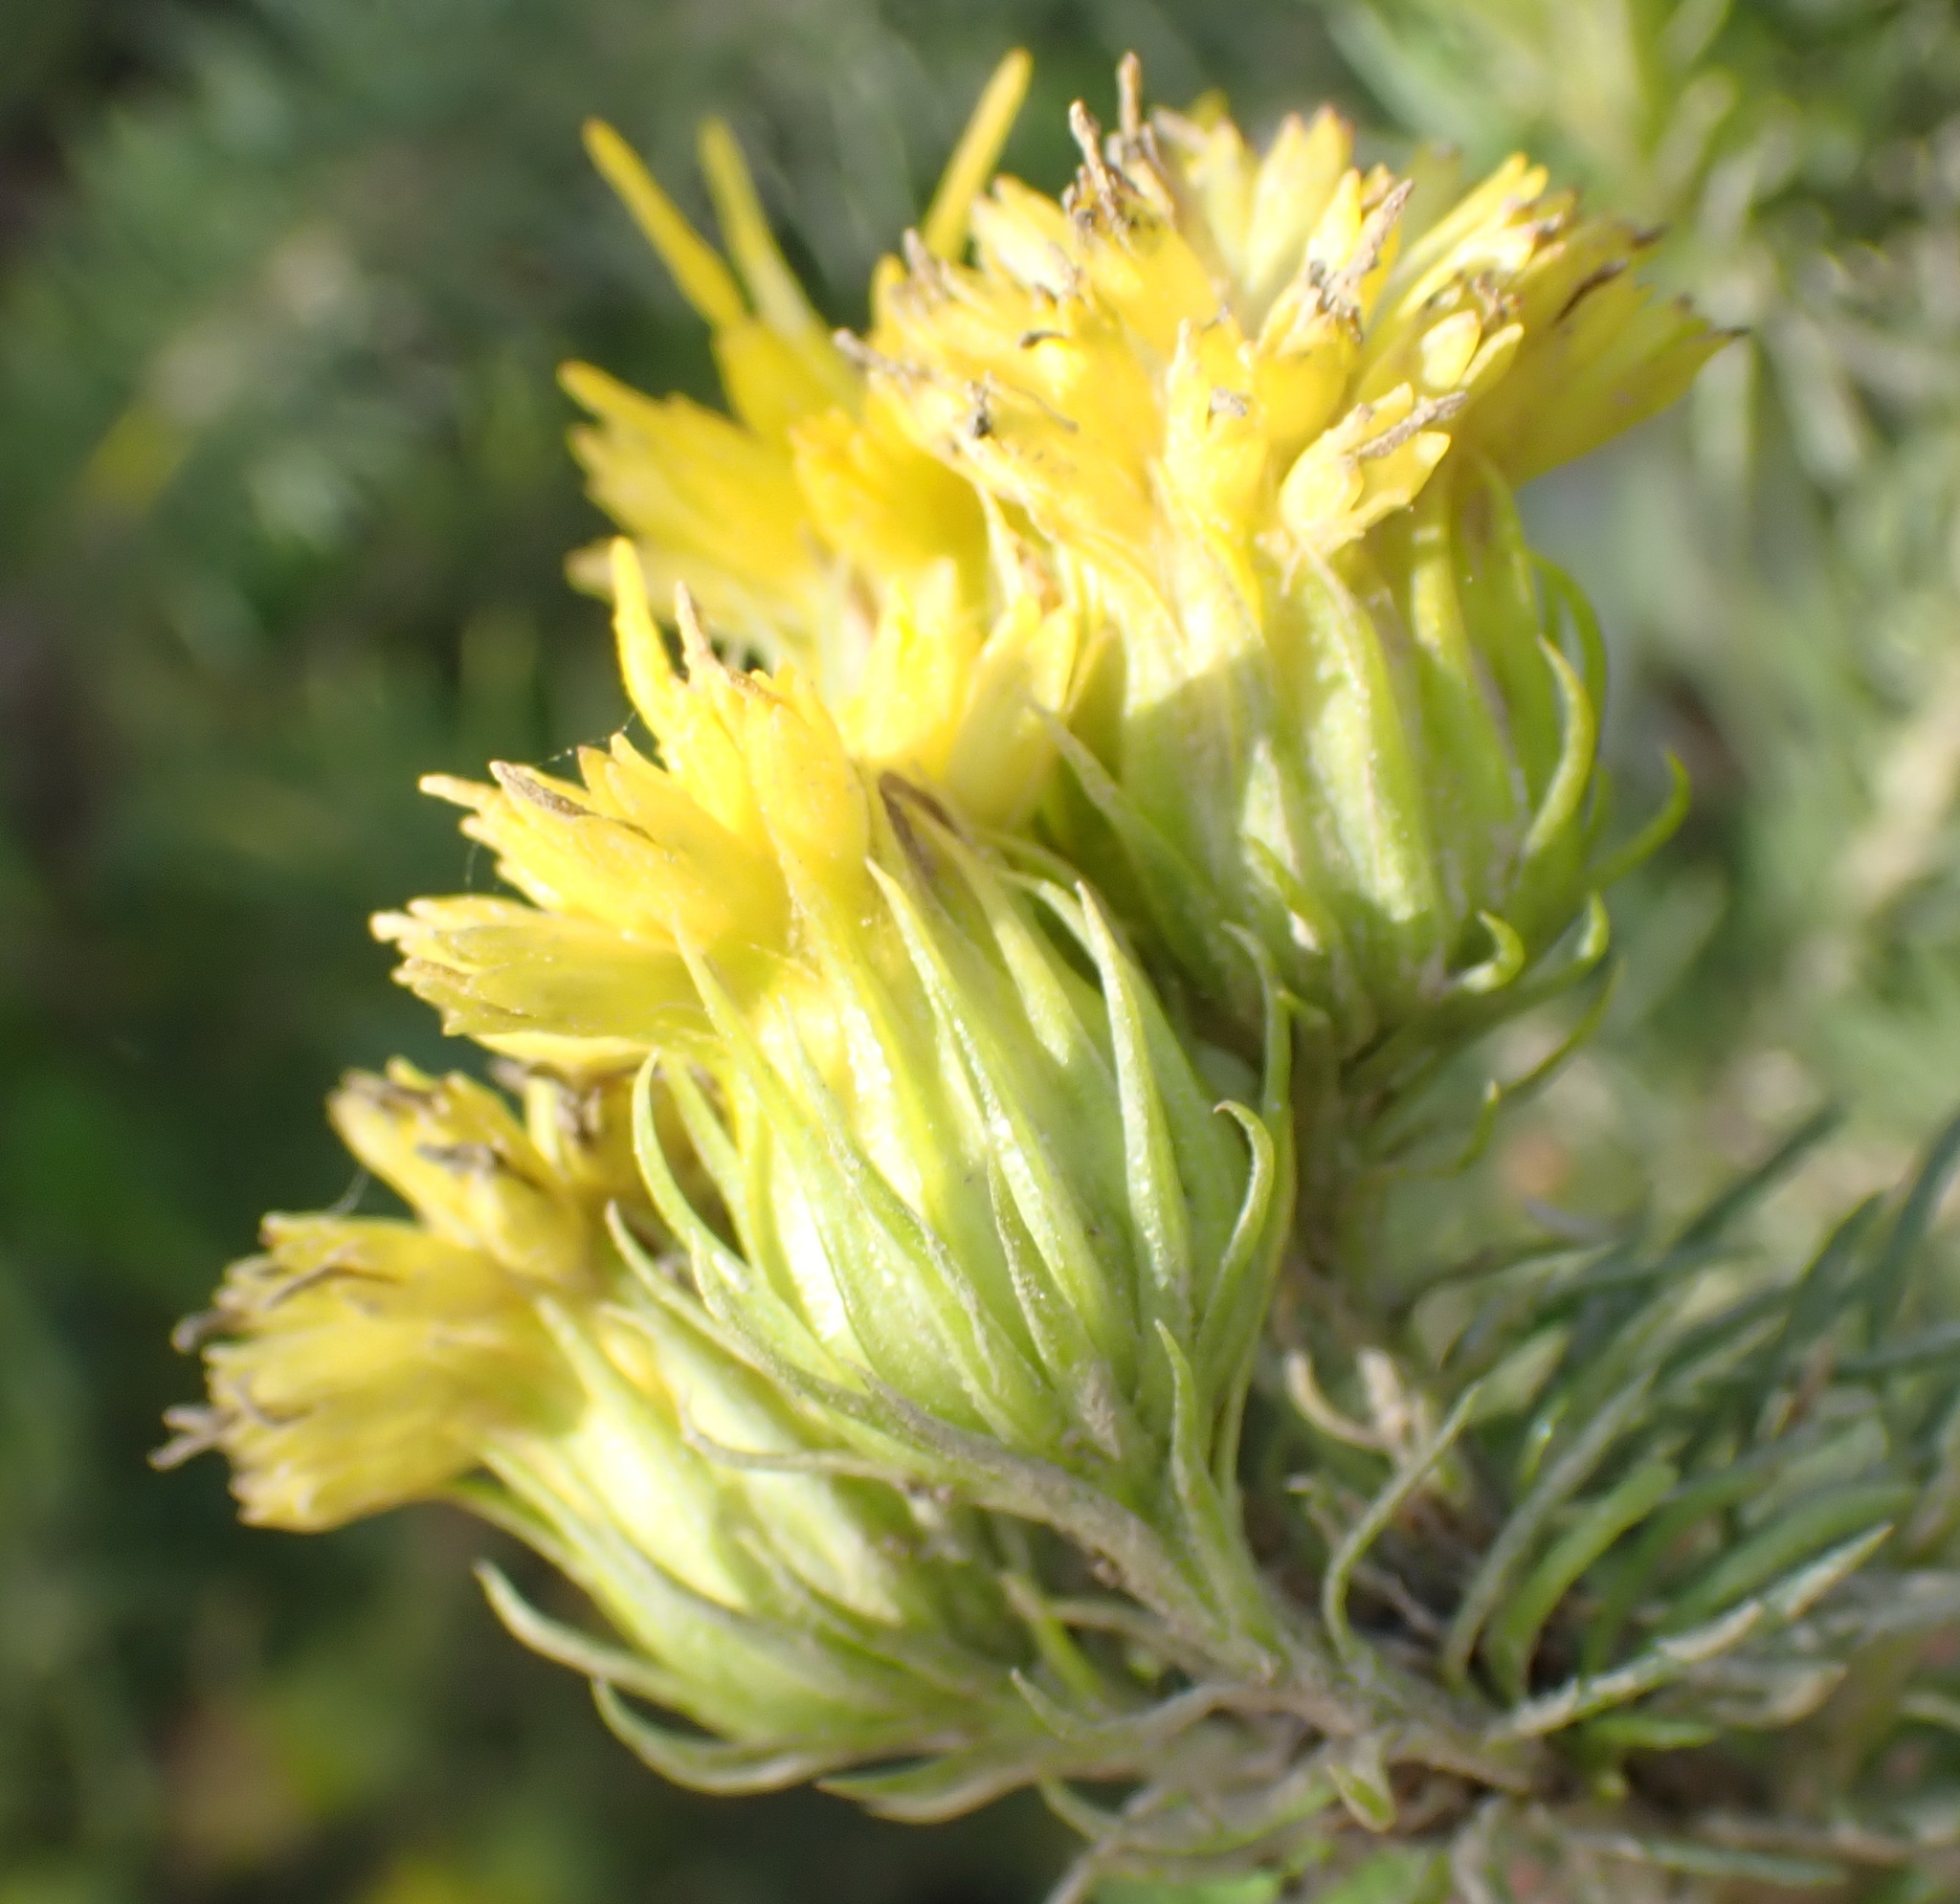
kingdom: Plantae
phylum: Tracheophyta
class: Magnoliopsida
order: Asterales
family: Asteraceae
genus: Pteronia
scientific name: Pteronia camphorata
